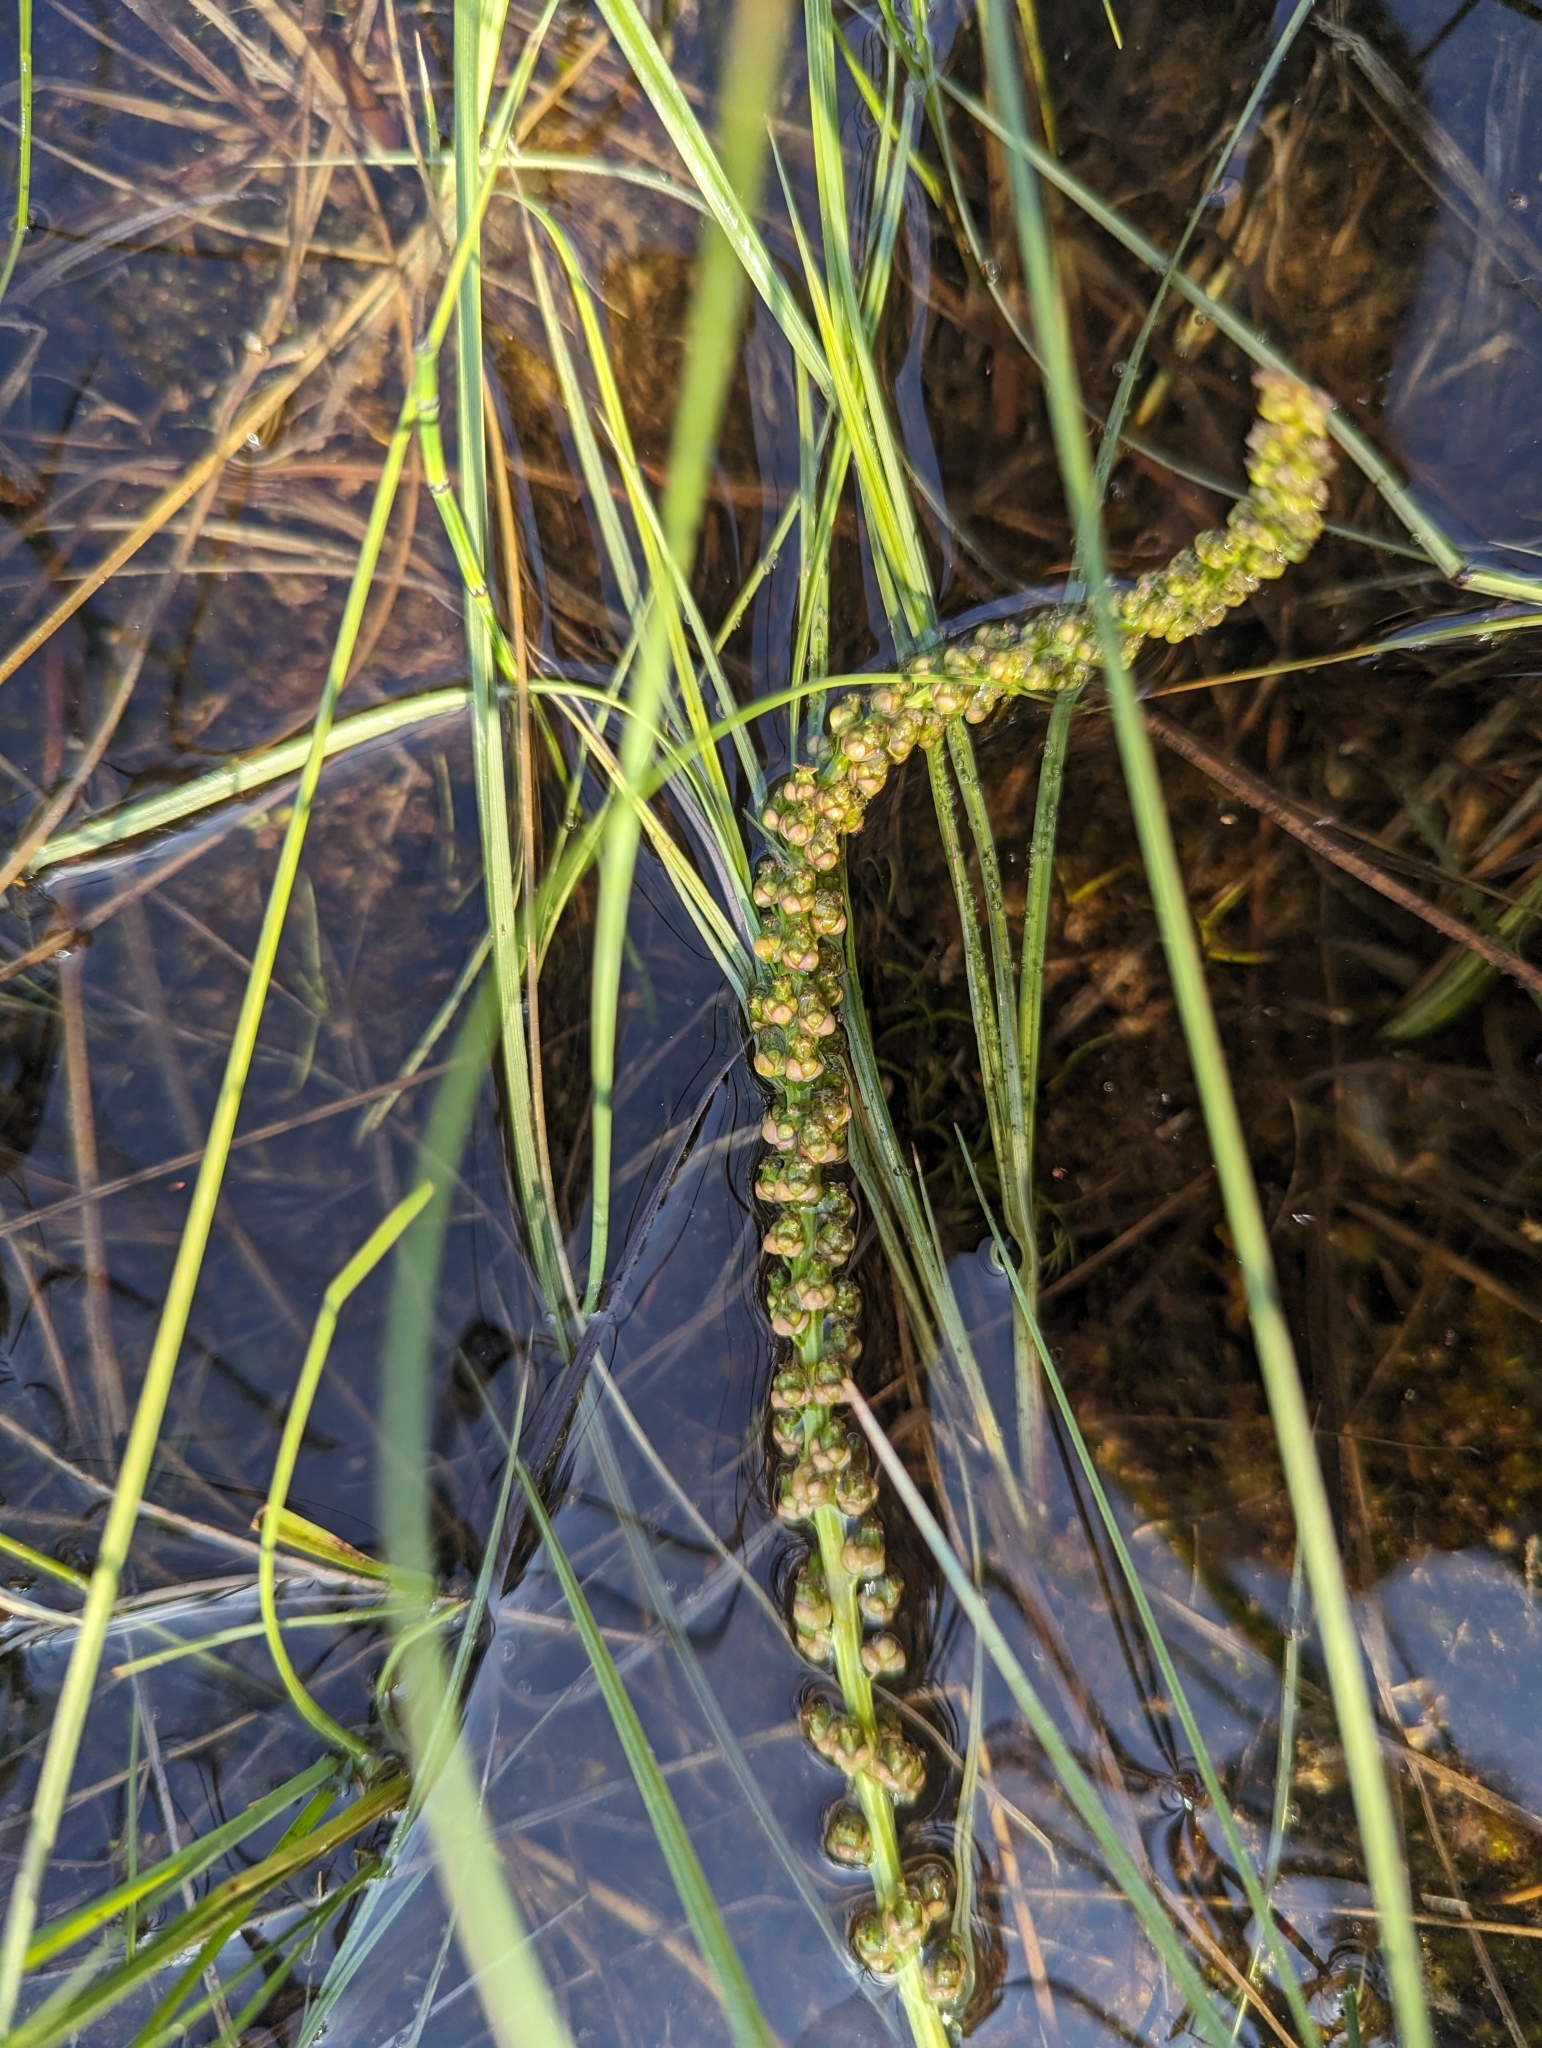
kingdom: Plantae
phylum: Tracheophyta
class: Liliopsida
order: Alismatales
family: Juncaginaceae
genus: Triglochin
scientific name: Triglochin maritima
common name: Sea arrowgrass
